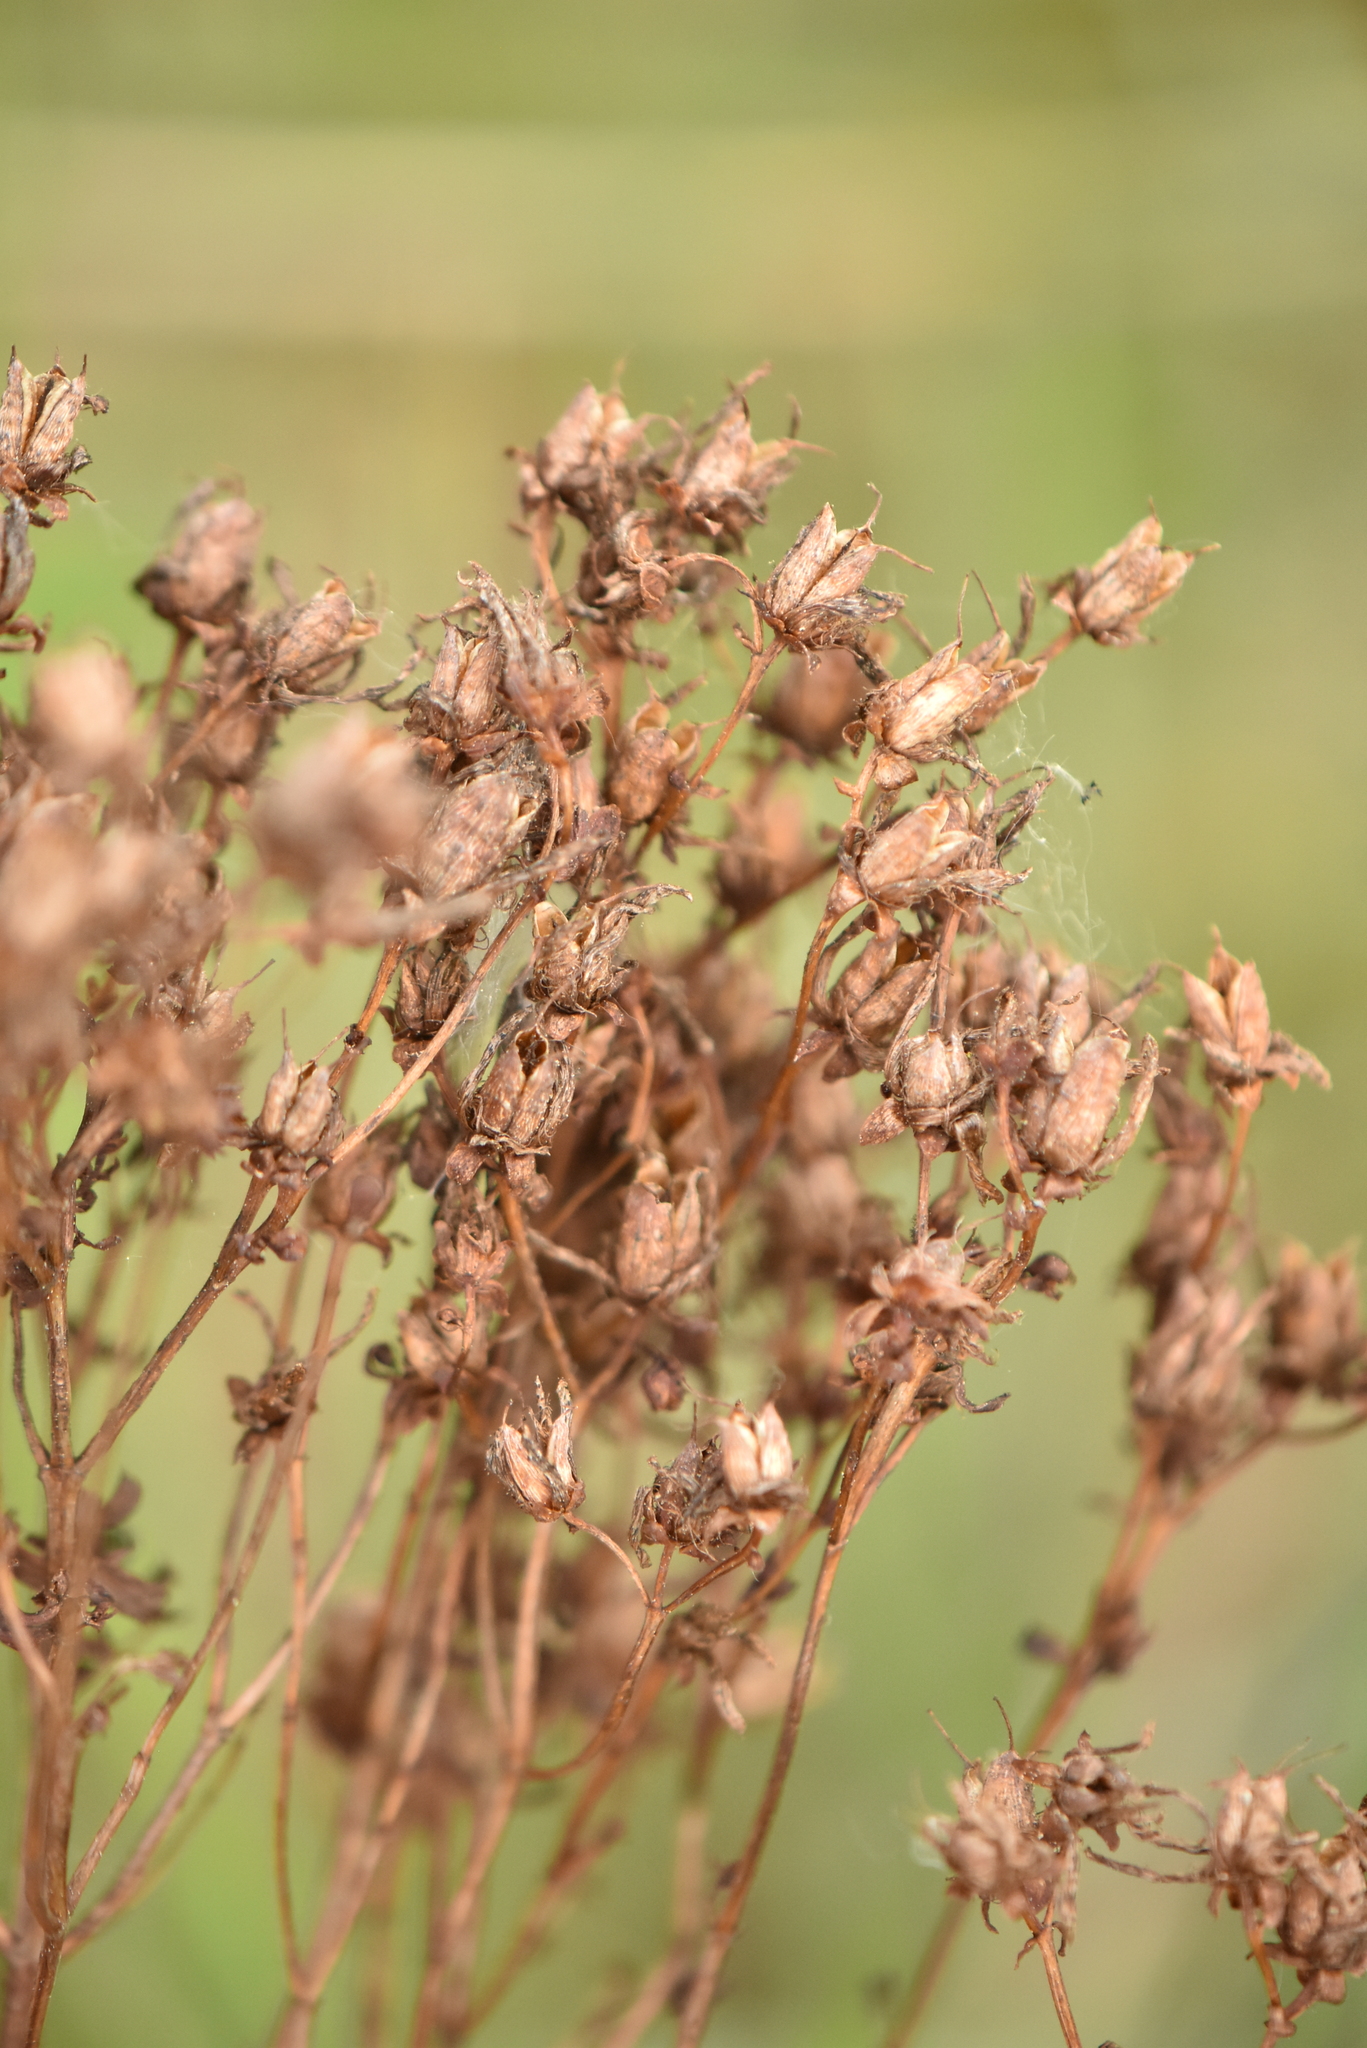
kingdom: Plantae
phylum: Tracheophyta
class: Magnoliopsida
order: Malpighiales
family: Hypericaceae
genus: Hypericum
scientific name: Hypericum perforatum
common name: Common st. johnswort
